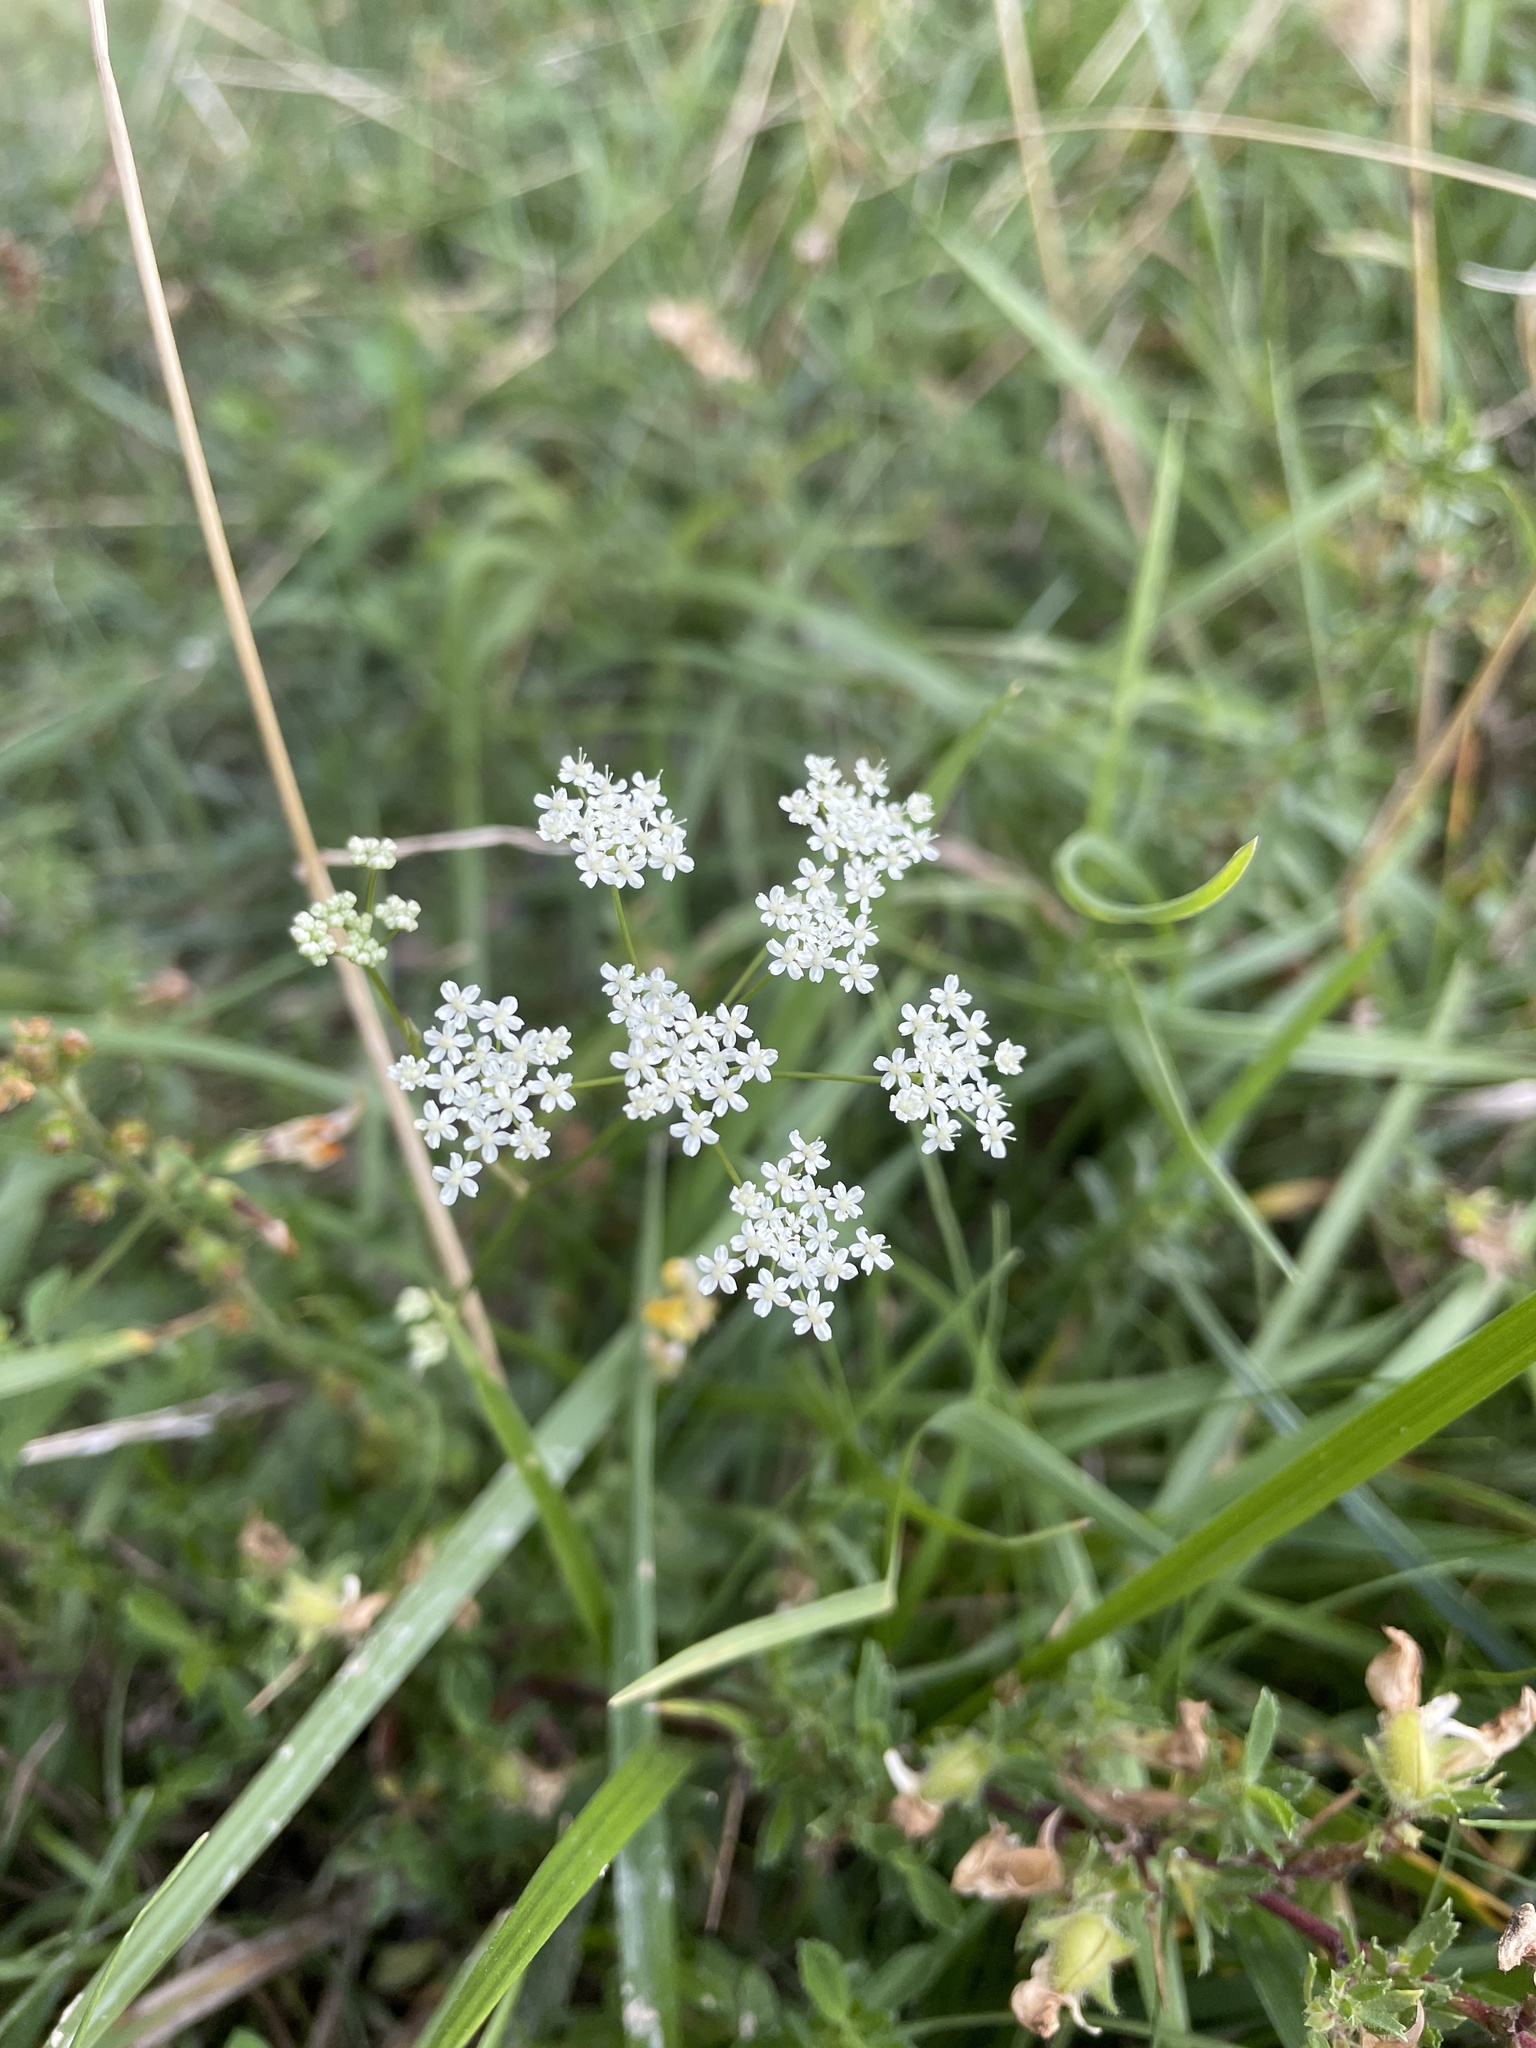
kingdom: Plantae
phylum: Tracheophyta
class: Magnoliopsida
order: Apiales
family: Apiaceae
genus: Daucus
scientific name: Daucus carota
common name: Wild carrot
